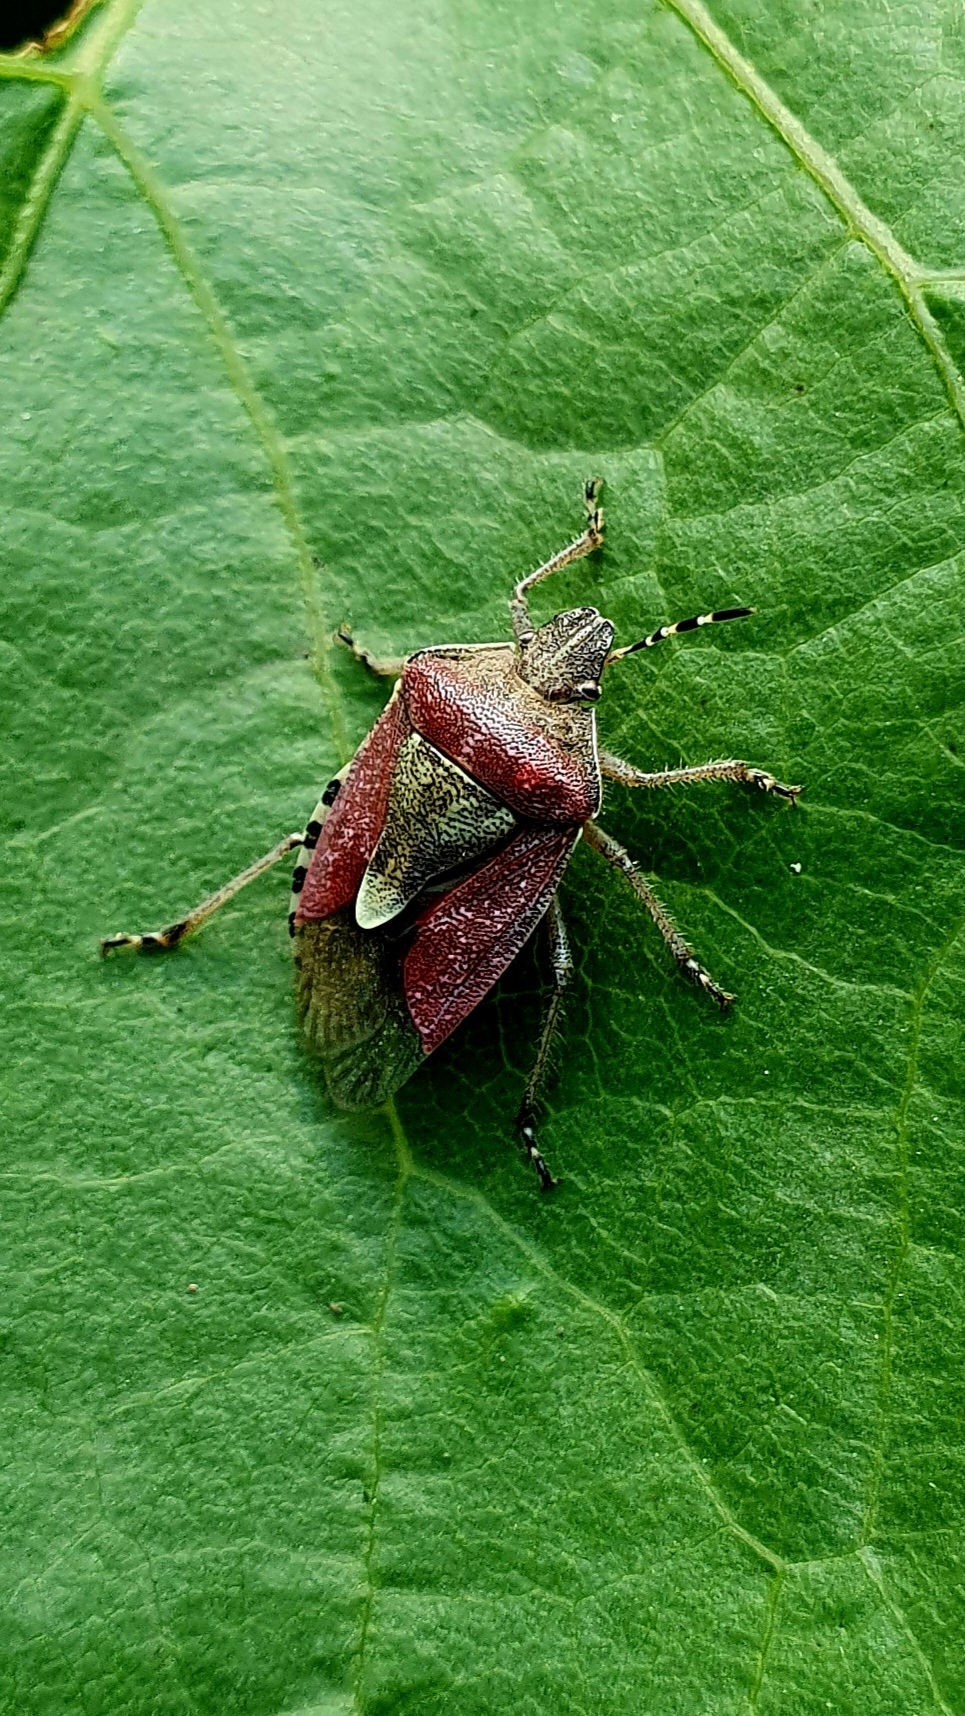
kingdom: Animalia
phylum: Arthropoda
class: Insecta
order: Hemiptera
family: Pentatomidae
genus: Dolycoris
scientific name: Dolycoris baccarum
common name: Sloe bug
